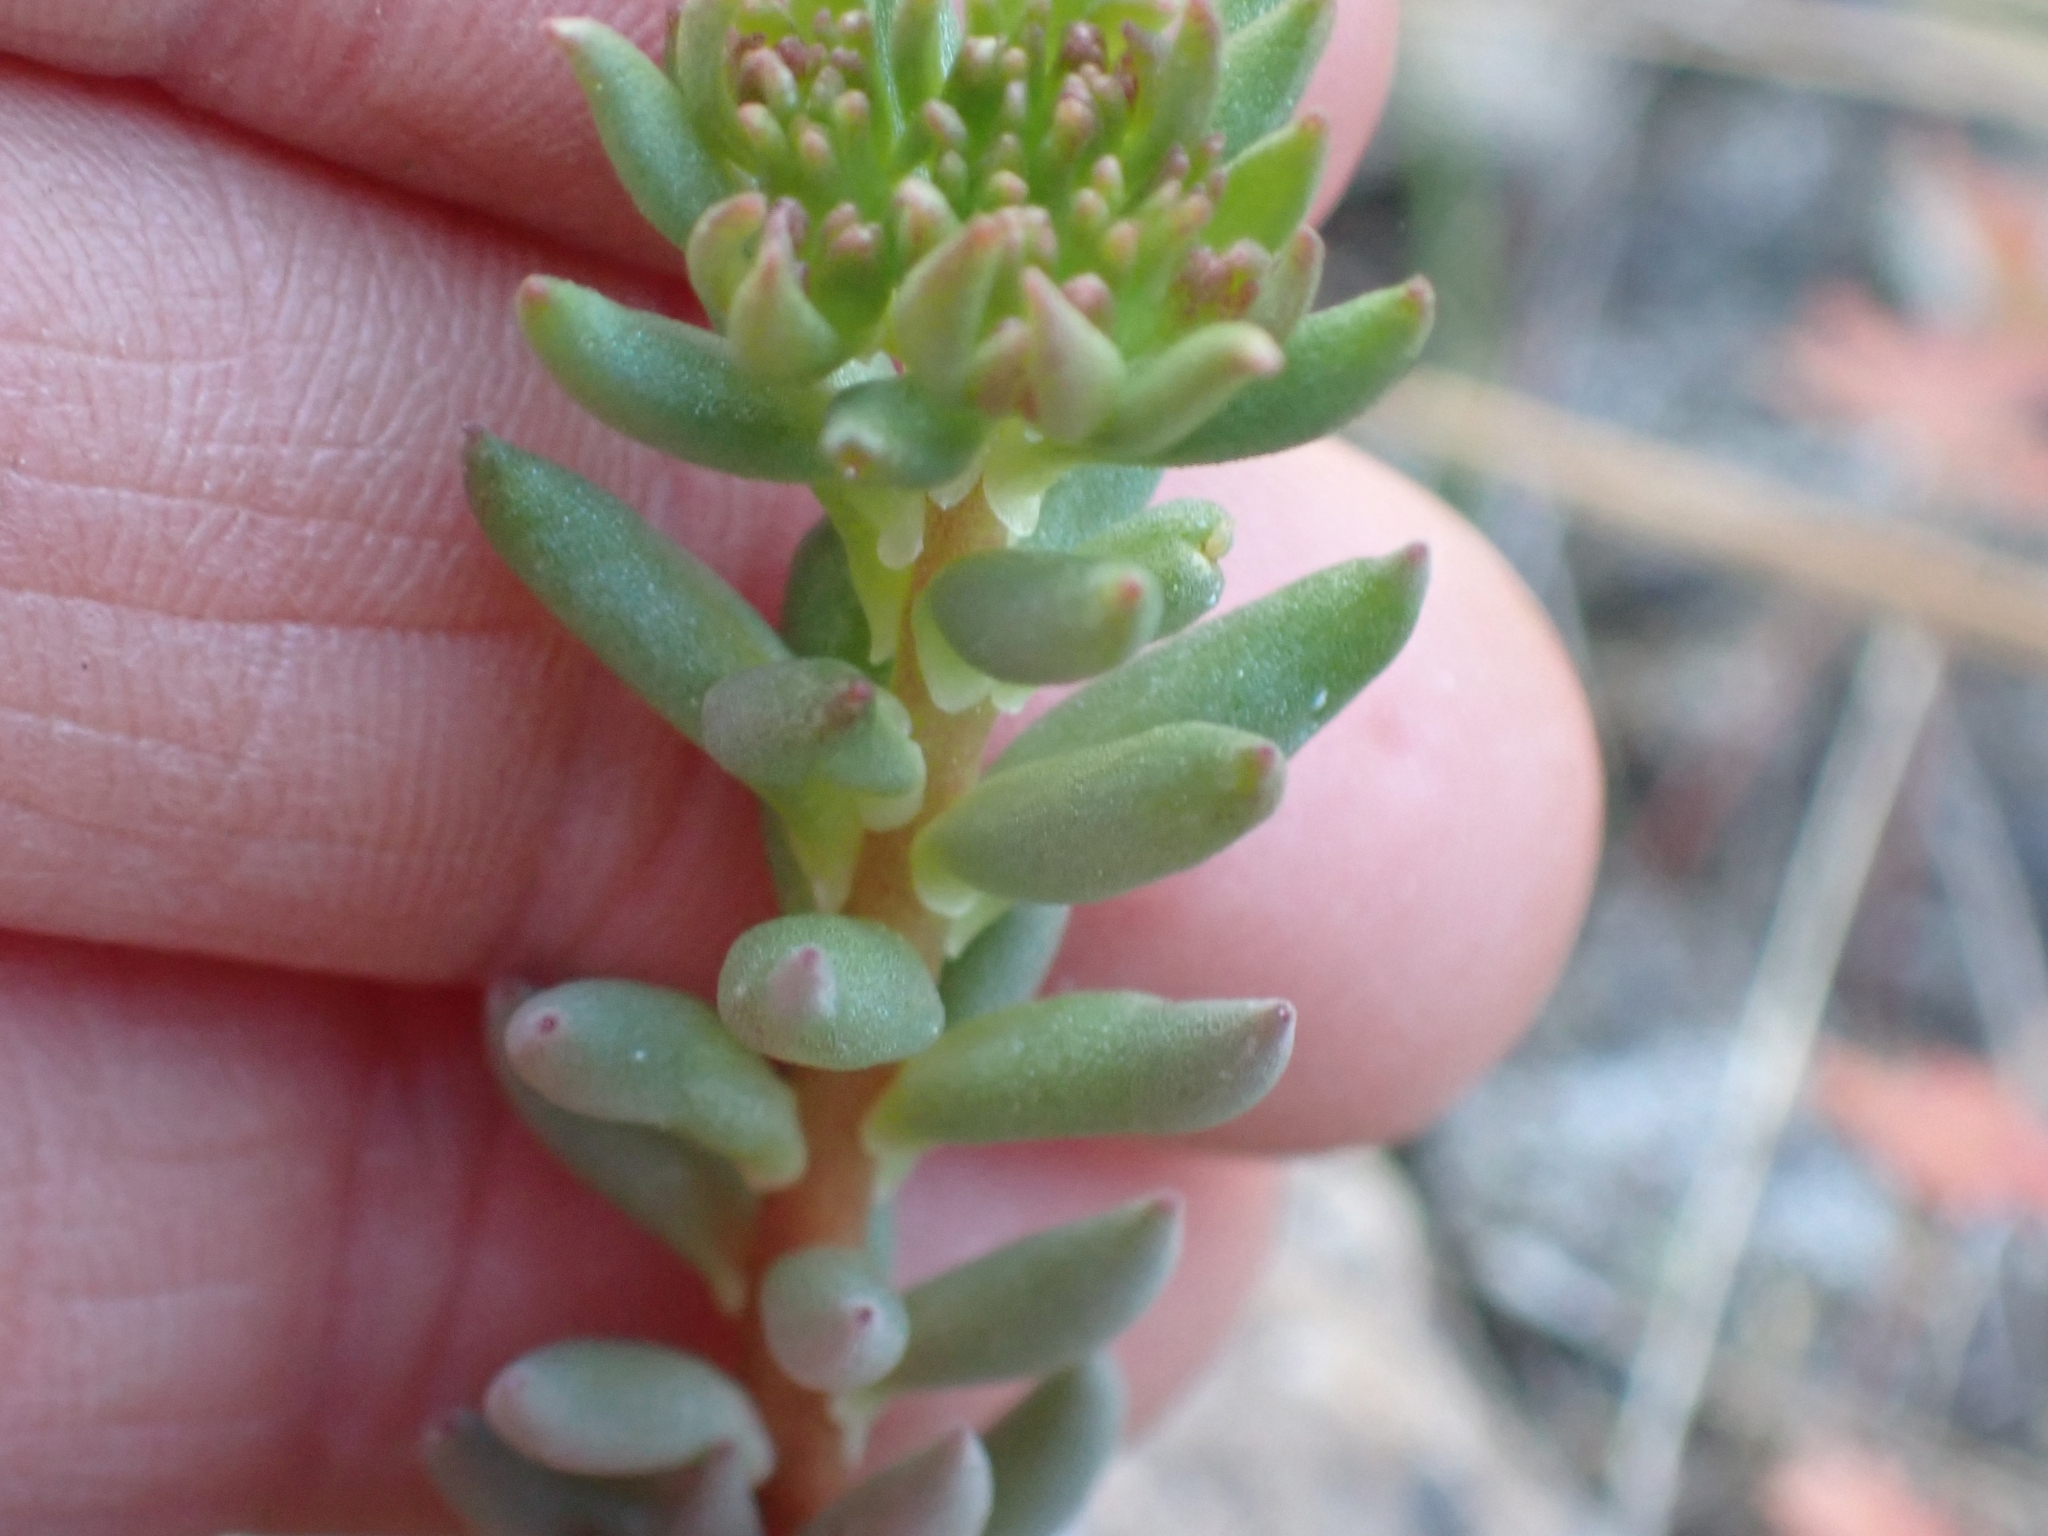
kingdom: Plantae
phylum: Tracheophyta
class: Magnoliopsida
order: Saxifragales
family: Crassulaceae
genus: Sedum
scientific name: Sedum lanceolatum
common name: Common stonecrop
